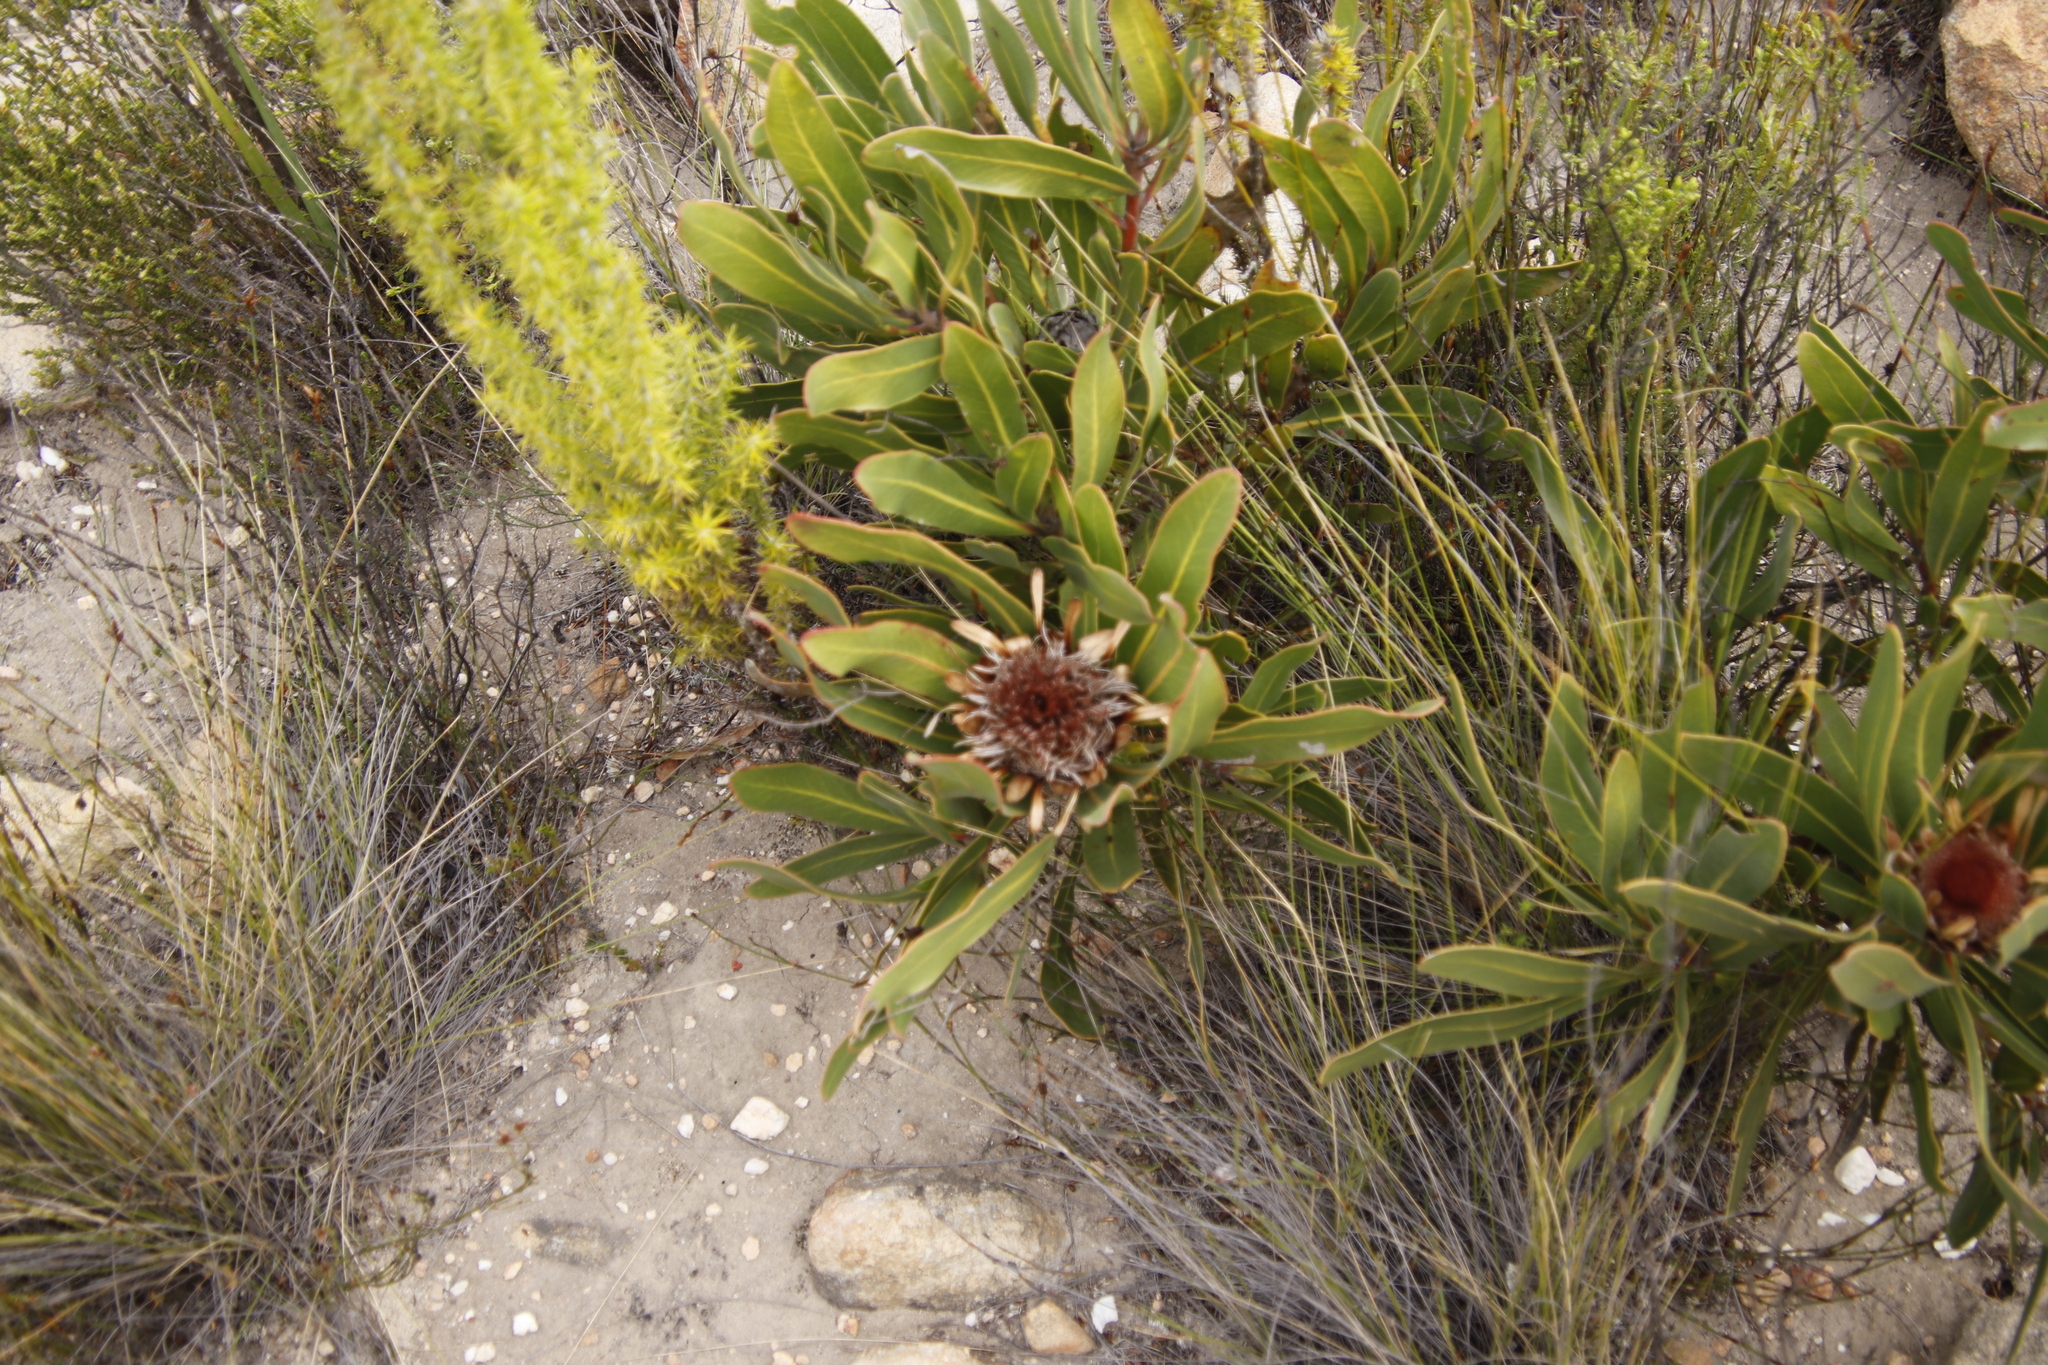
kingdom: Plantae
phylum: Tracheophyta
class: Magnoliopsida
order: Proteales
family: Proteaceae
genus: Protea
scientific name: Protea lorifolia
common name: Strap-leaved protea
